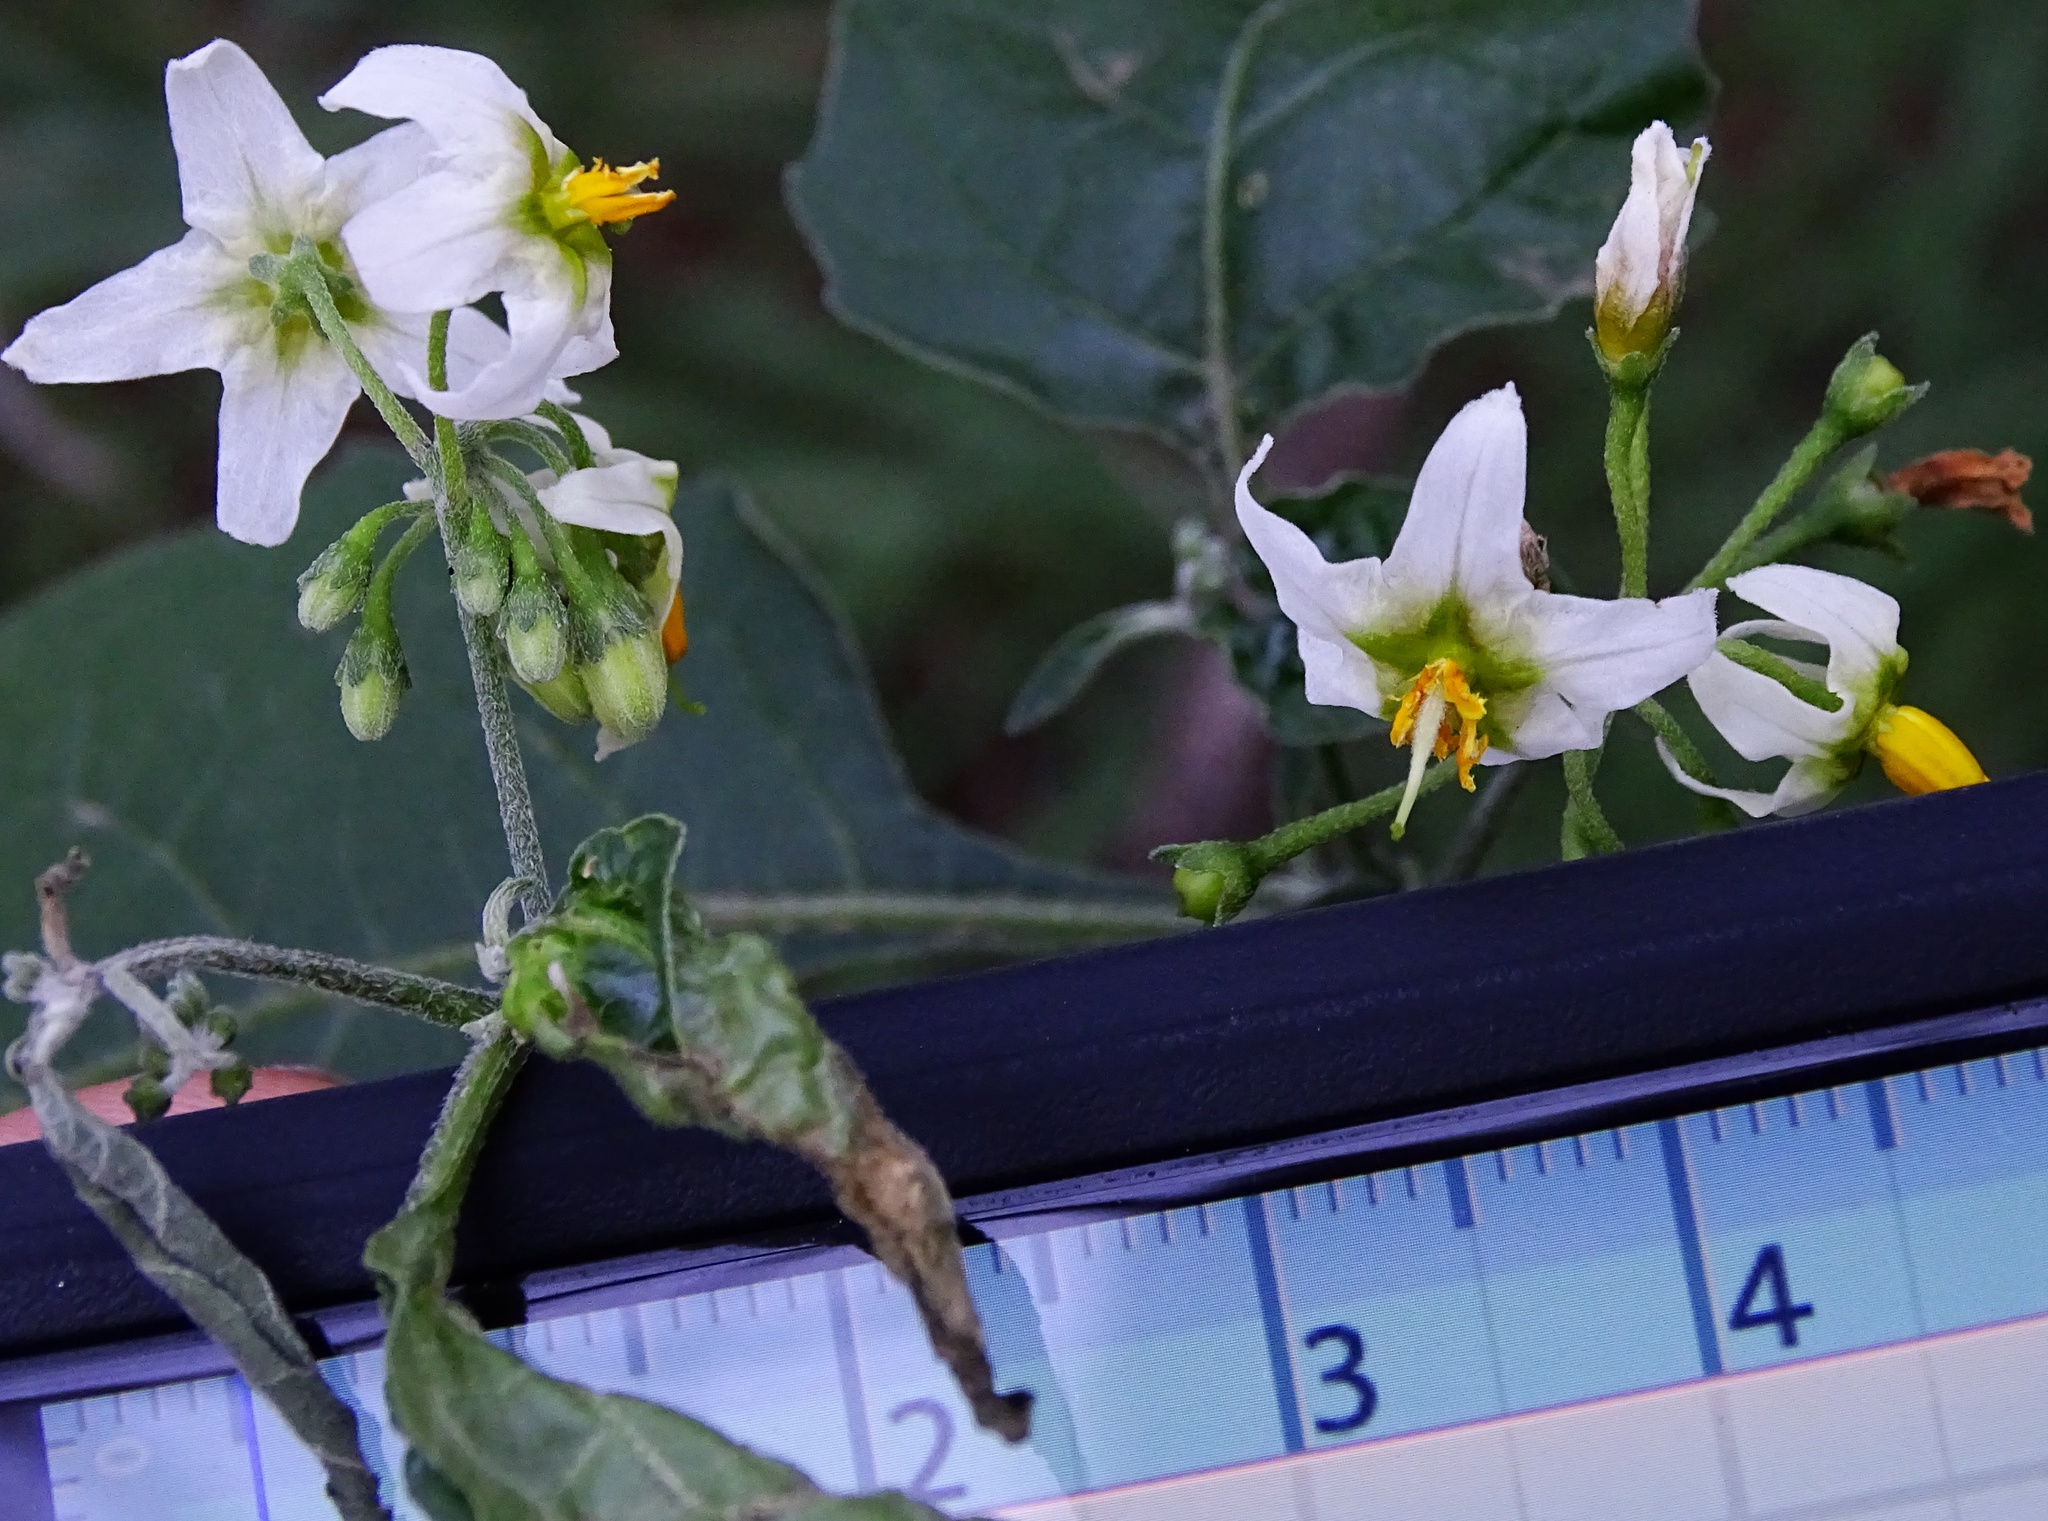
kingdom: Plantae
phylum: Tracheophyta
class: Magnoliopsida
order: Solanales
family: Solanaceae
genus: Solanum
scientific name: Solanum douglasii
